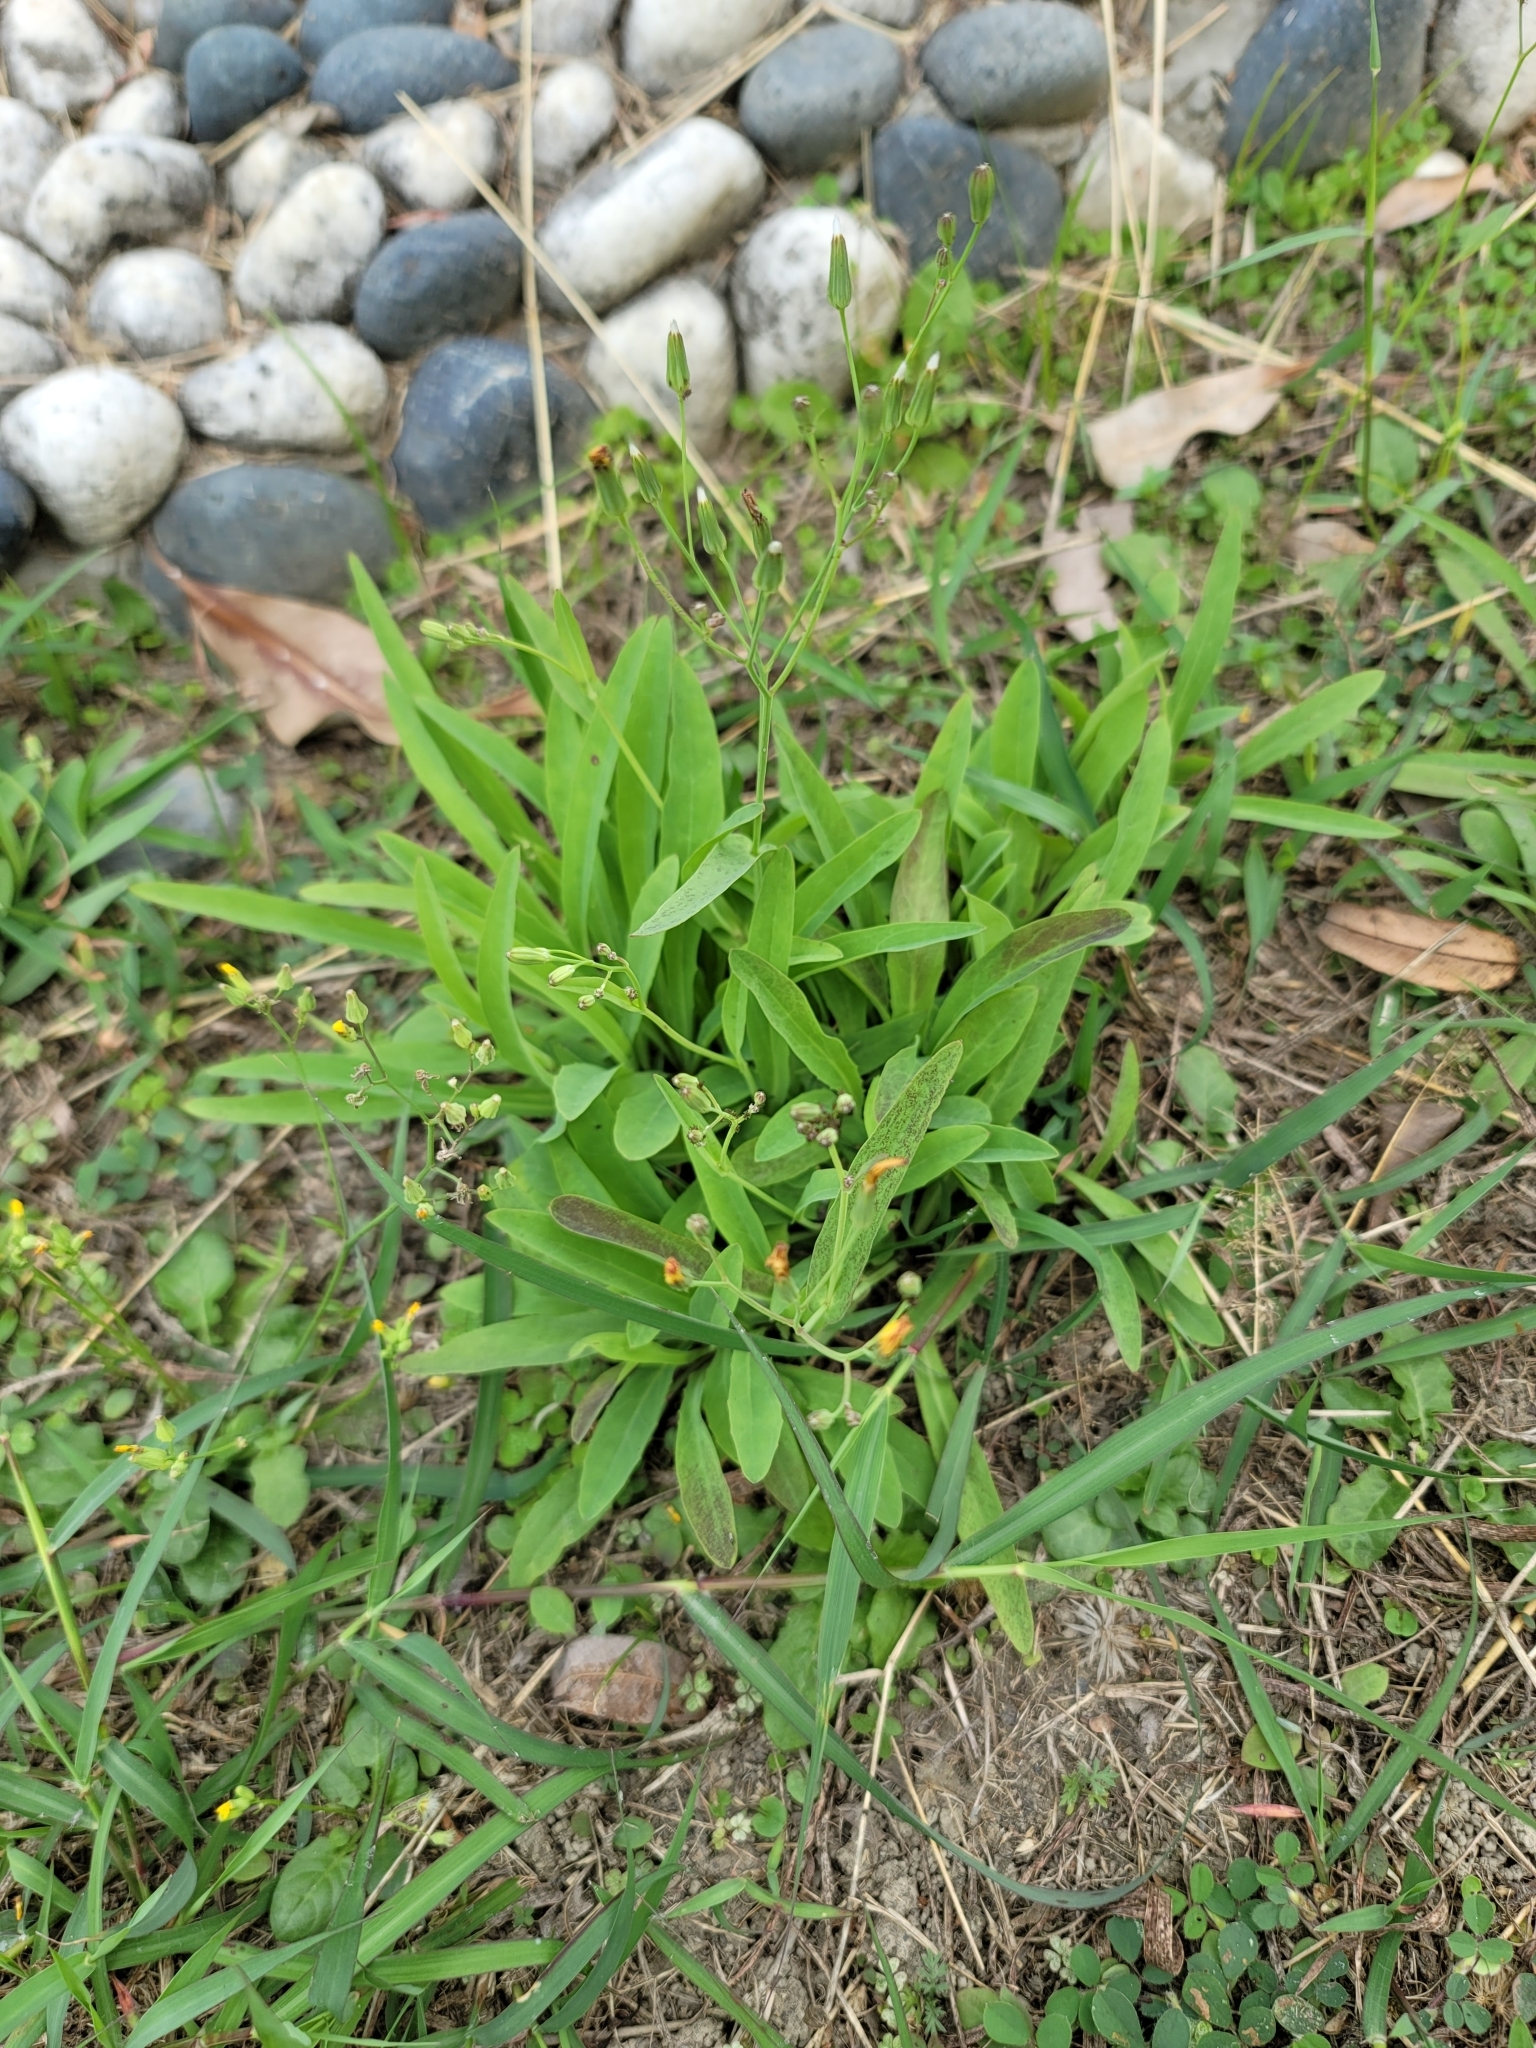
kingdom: Plantae
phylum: Tracheophyta
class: Magnoliopsida
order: Asterales
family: Asteraceae
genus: Ixeris
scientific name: Ixeris chinensis
